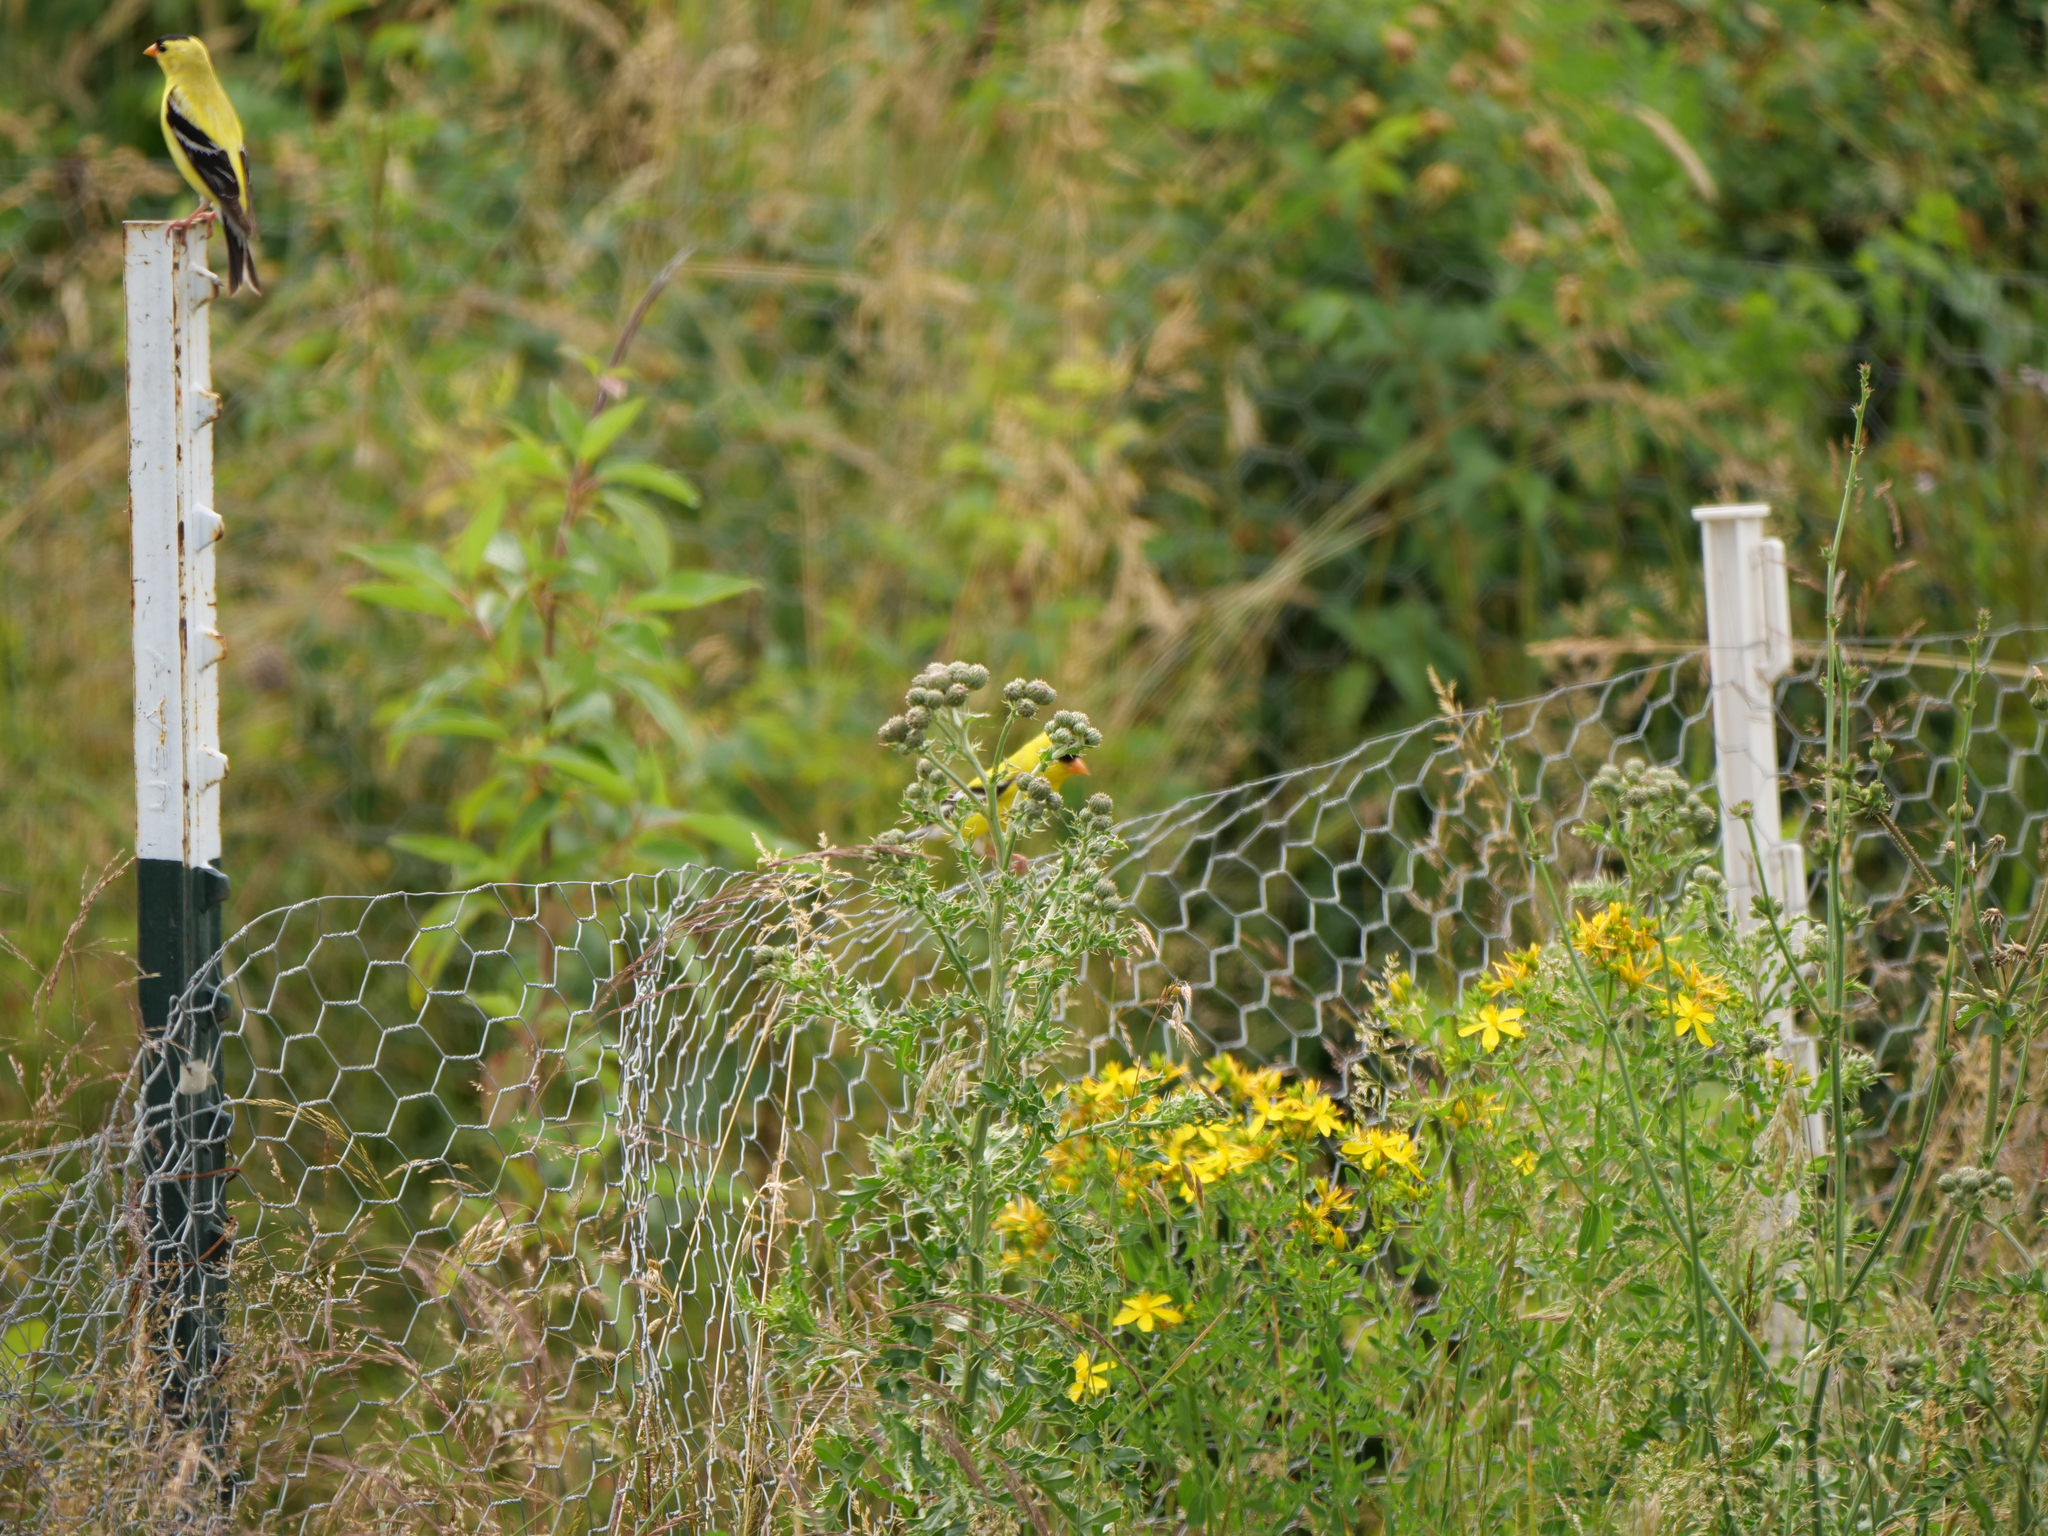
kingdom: Animalia
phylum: Chordata
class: Aves
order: Passeriformes
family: Fringillidae
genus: Spinus
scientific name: Spinus tristis
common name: American goldfinch
